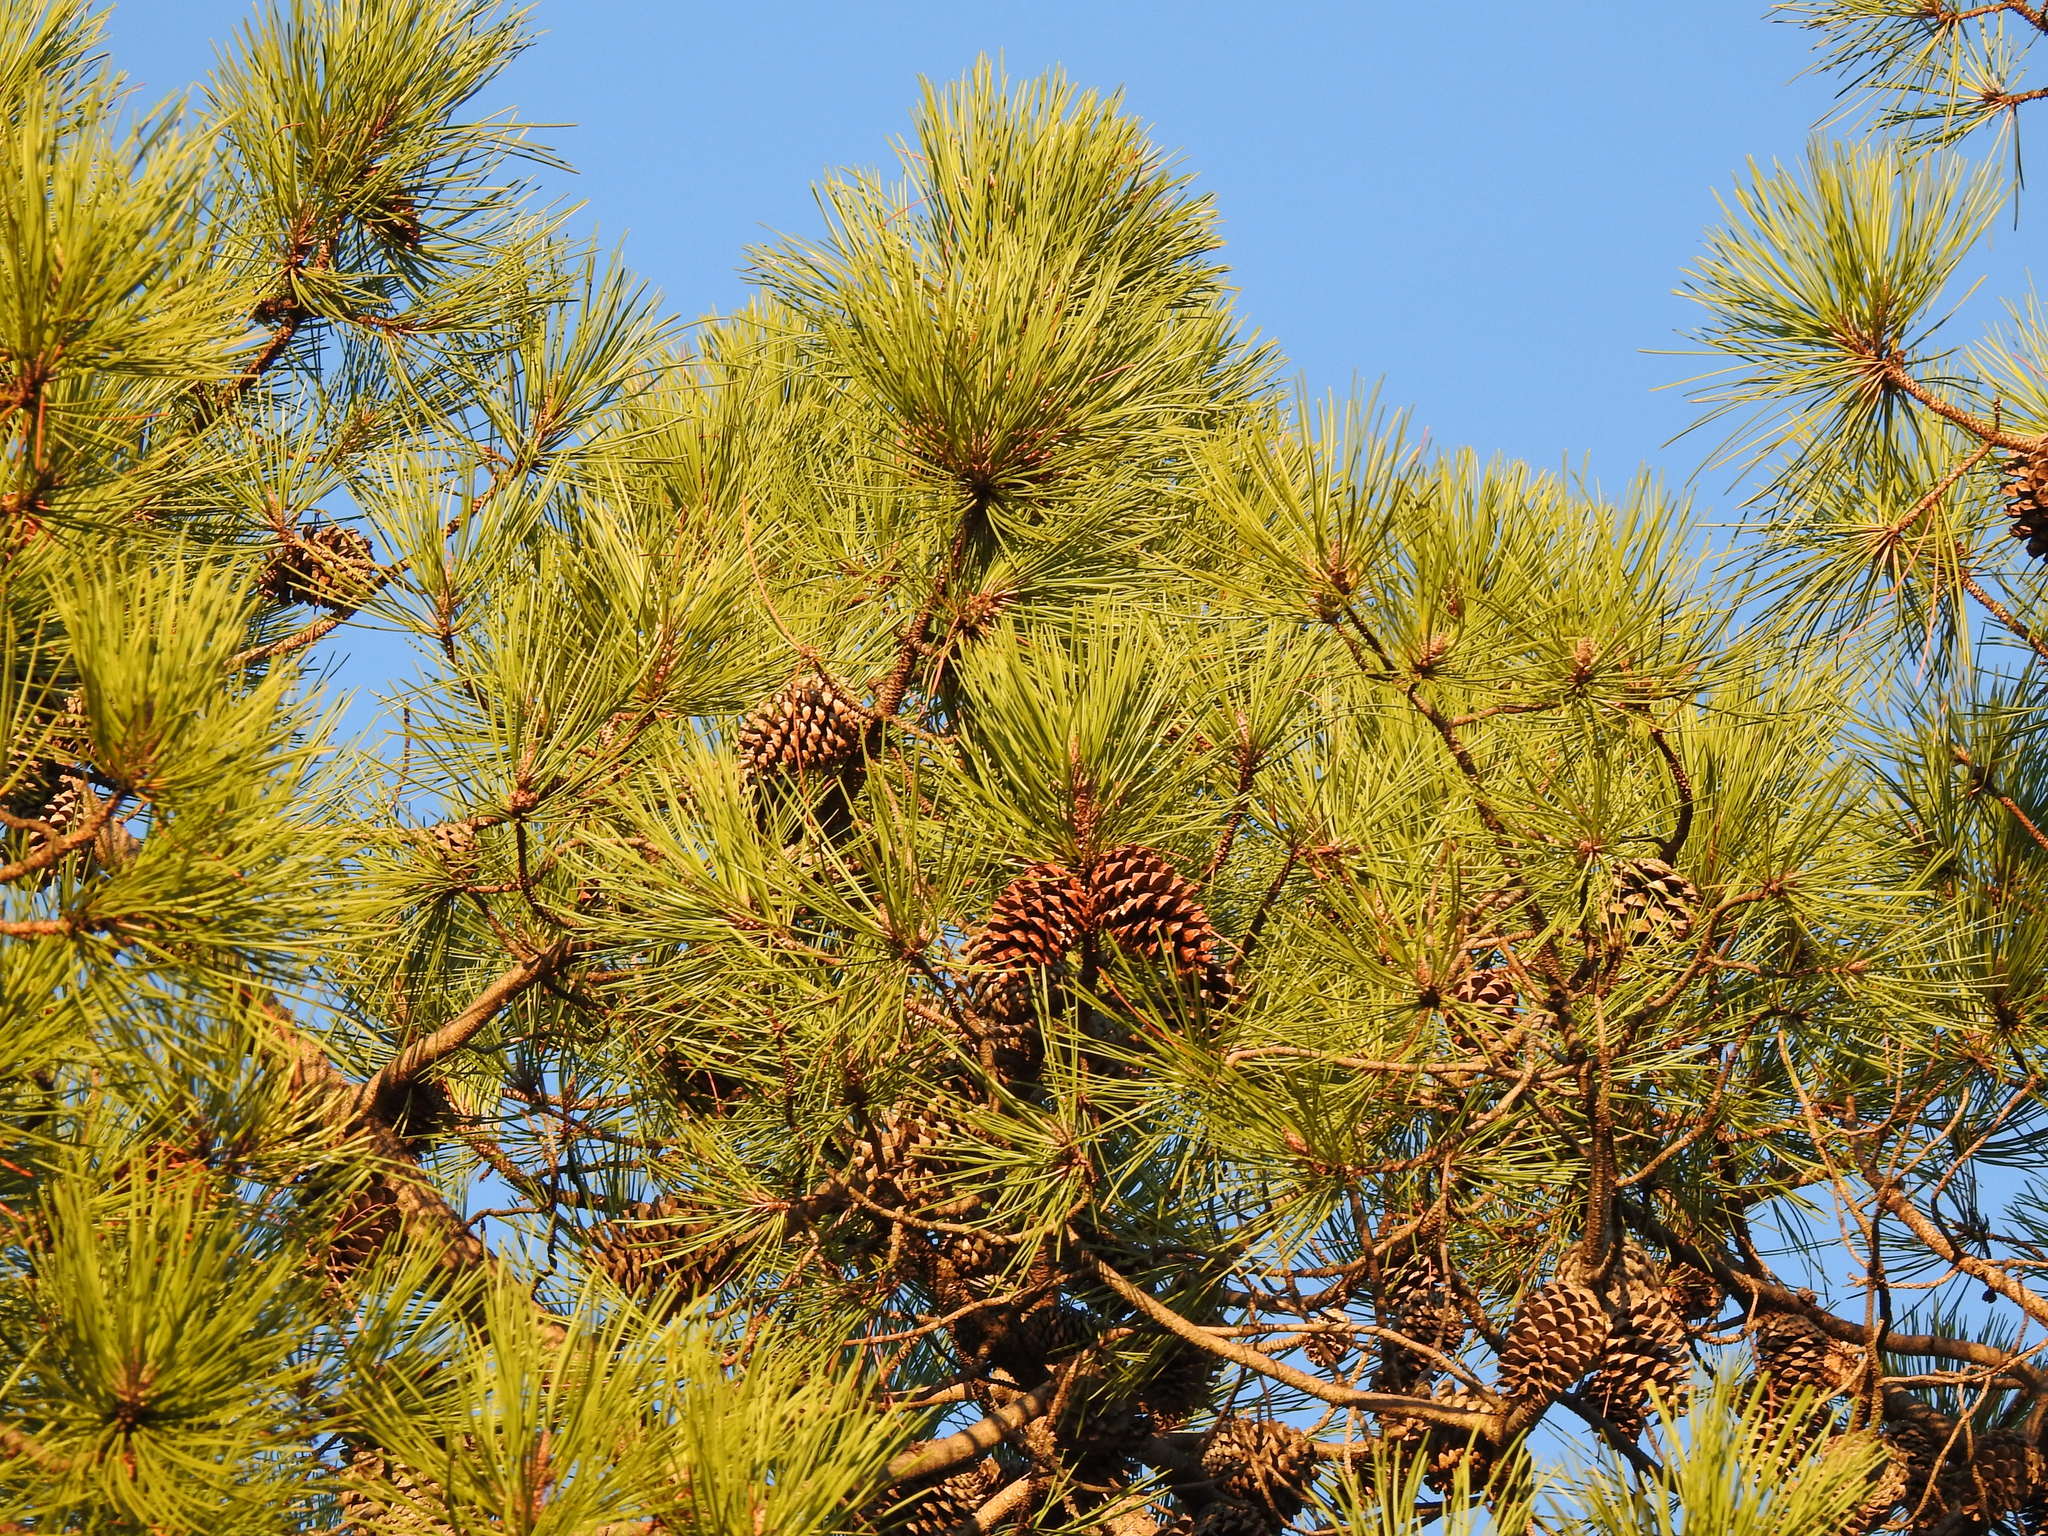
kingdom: Plantae
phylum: Tracheophyta
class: Pinopsida
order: Pinales
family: Pinaceae
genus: Pinus
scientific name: Pinus pinaster
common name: Maritime pine
